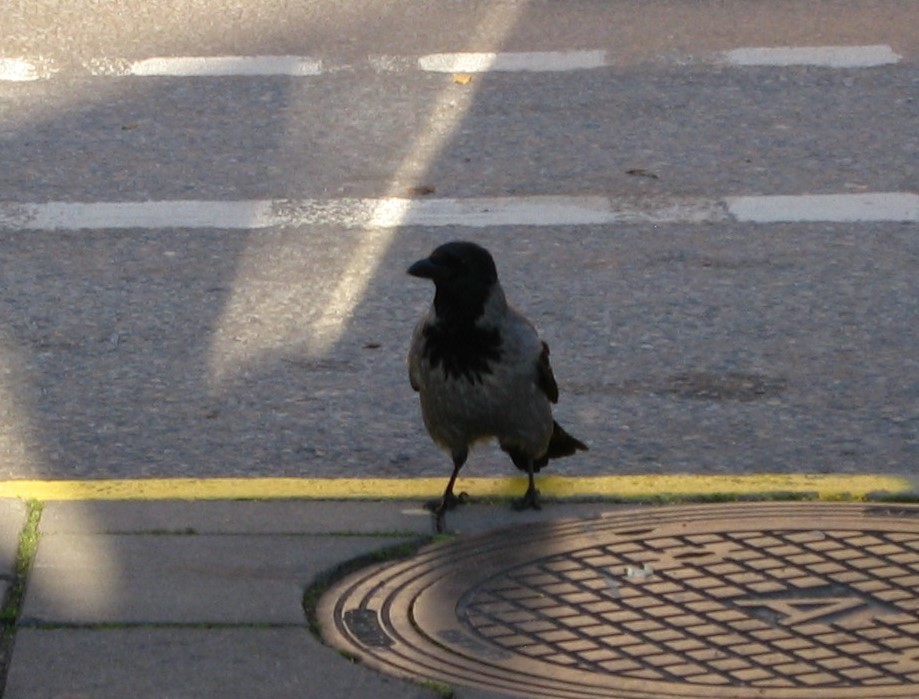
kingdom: Animalia
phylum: Chordata
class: Aves
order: Passeriformes
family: Corvidae
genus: Corvus
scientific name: Corvus cornix
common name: Hooded crow
